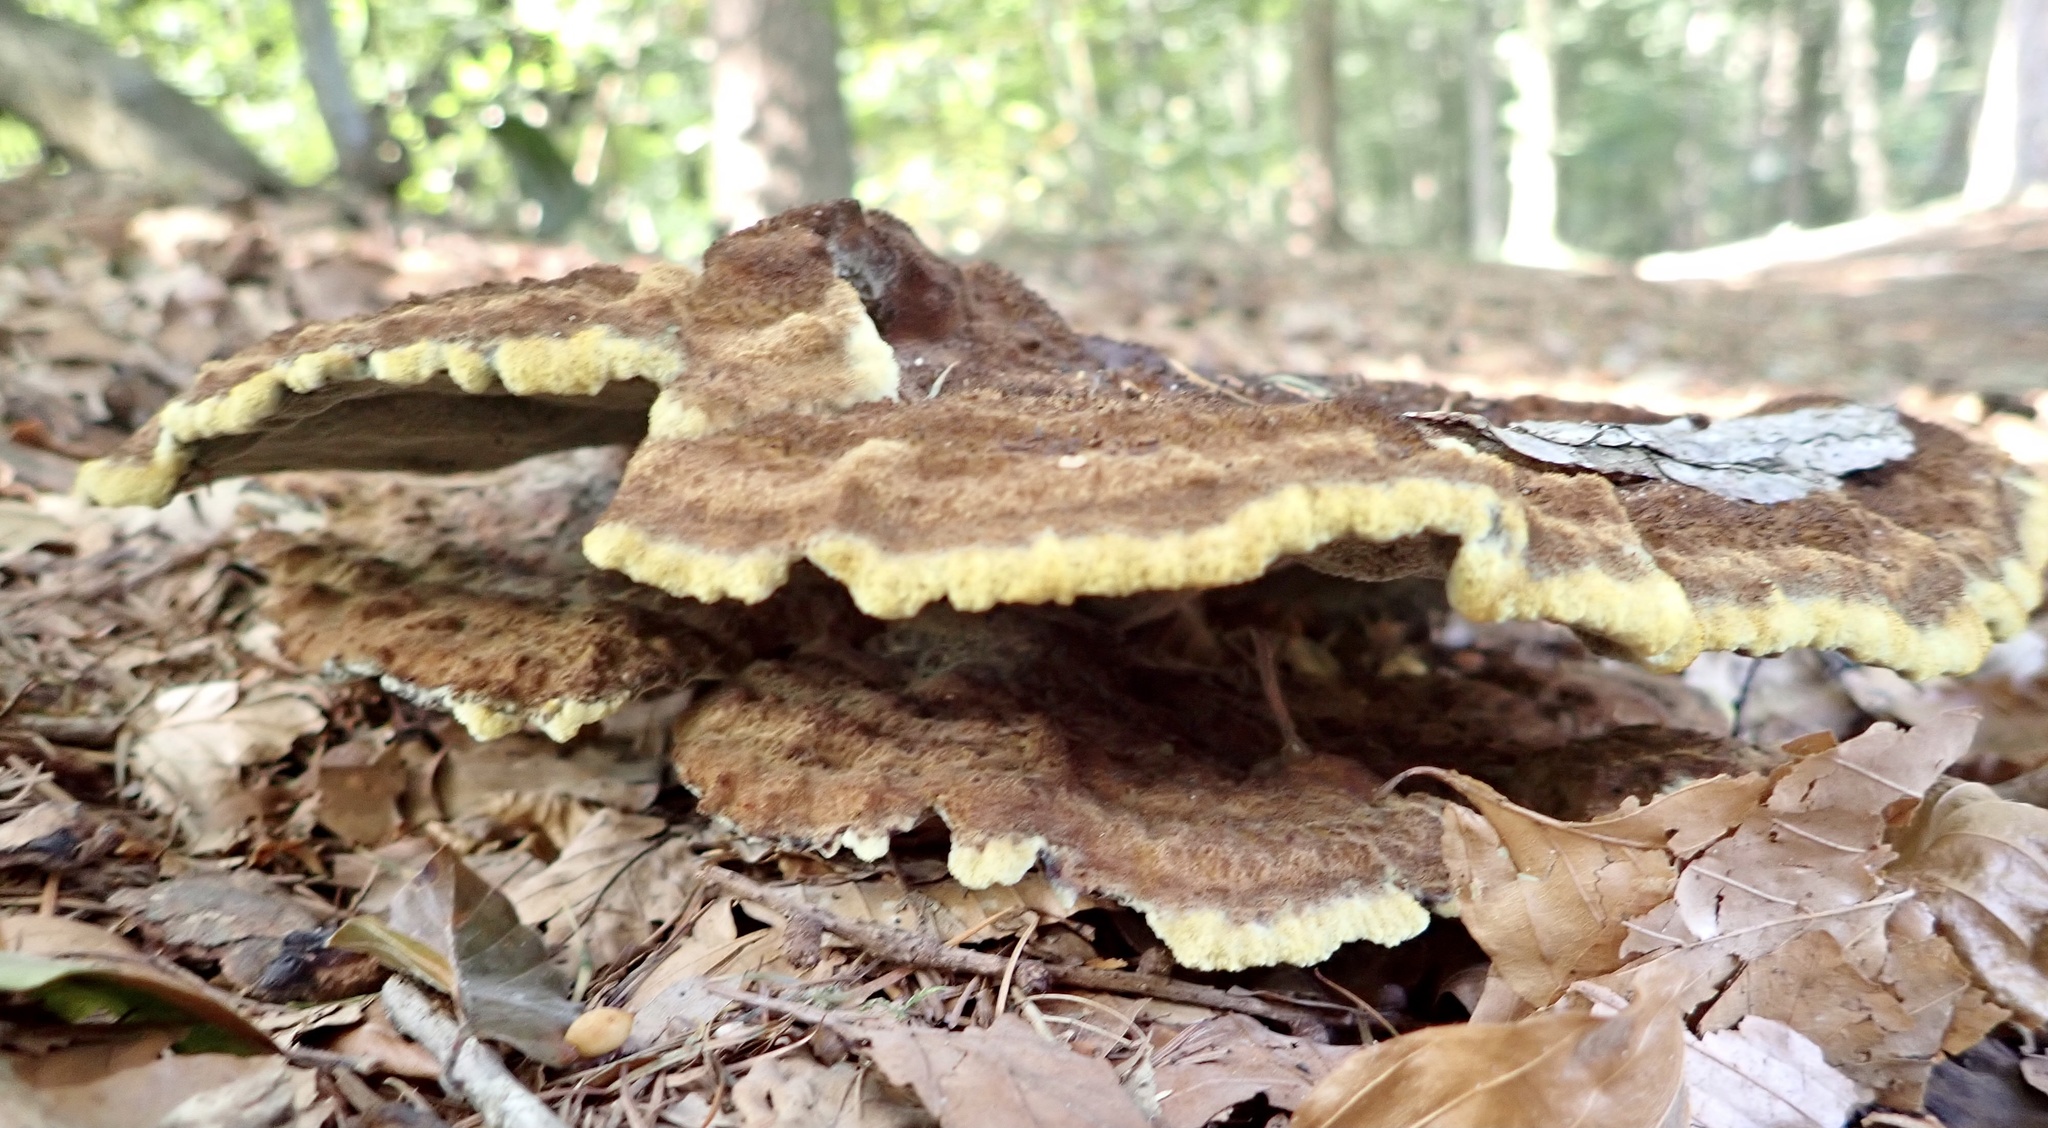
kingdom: Fungi
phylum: Basidiomycota
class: Agaricomycetes
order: Polyporales
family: Laetiporaceae
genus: Phaeolus
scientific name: Phaeolus schweinitzii
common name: Dyer's mazegill
